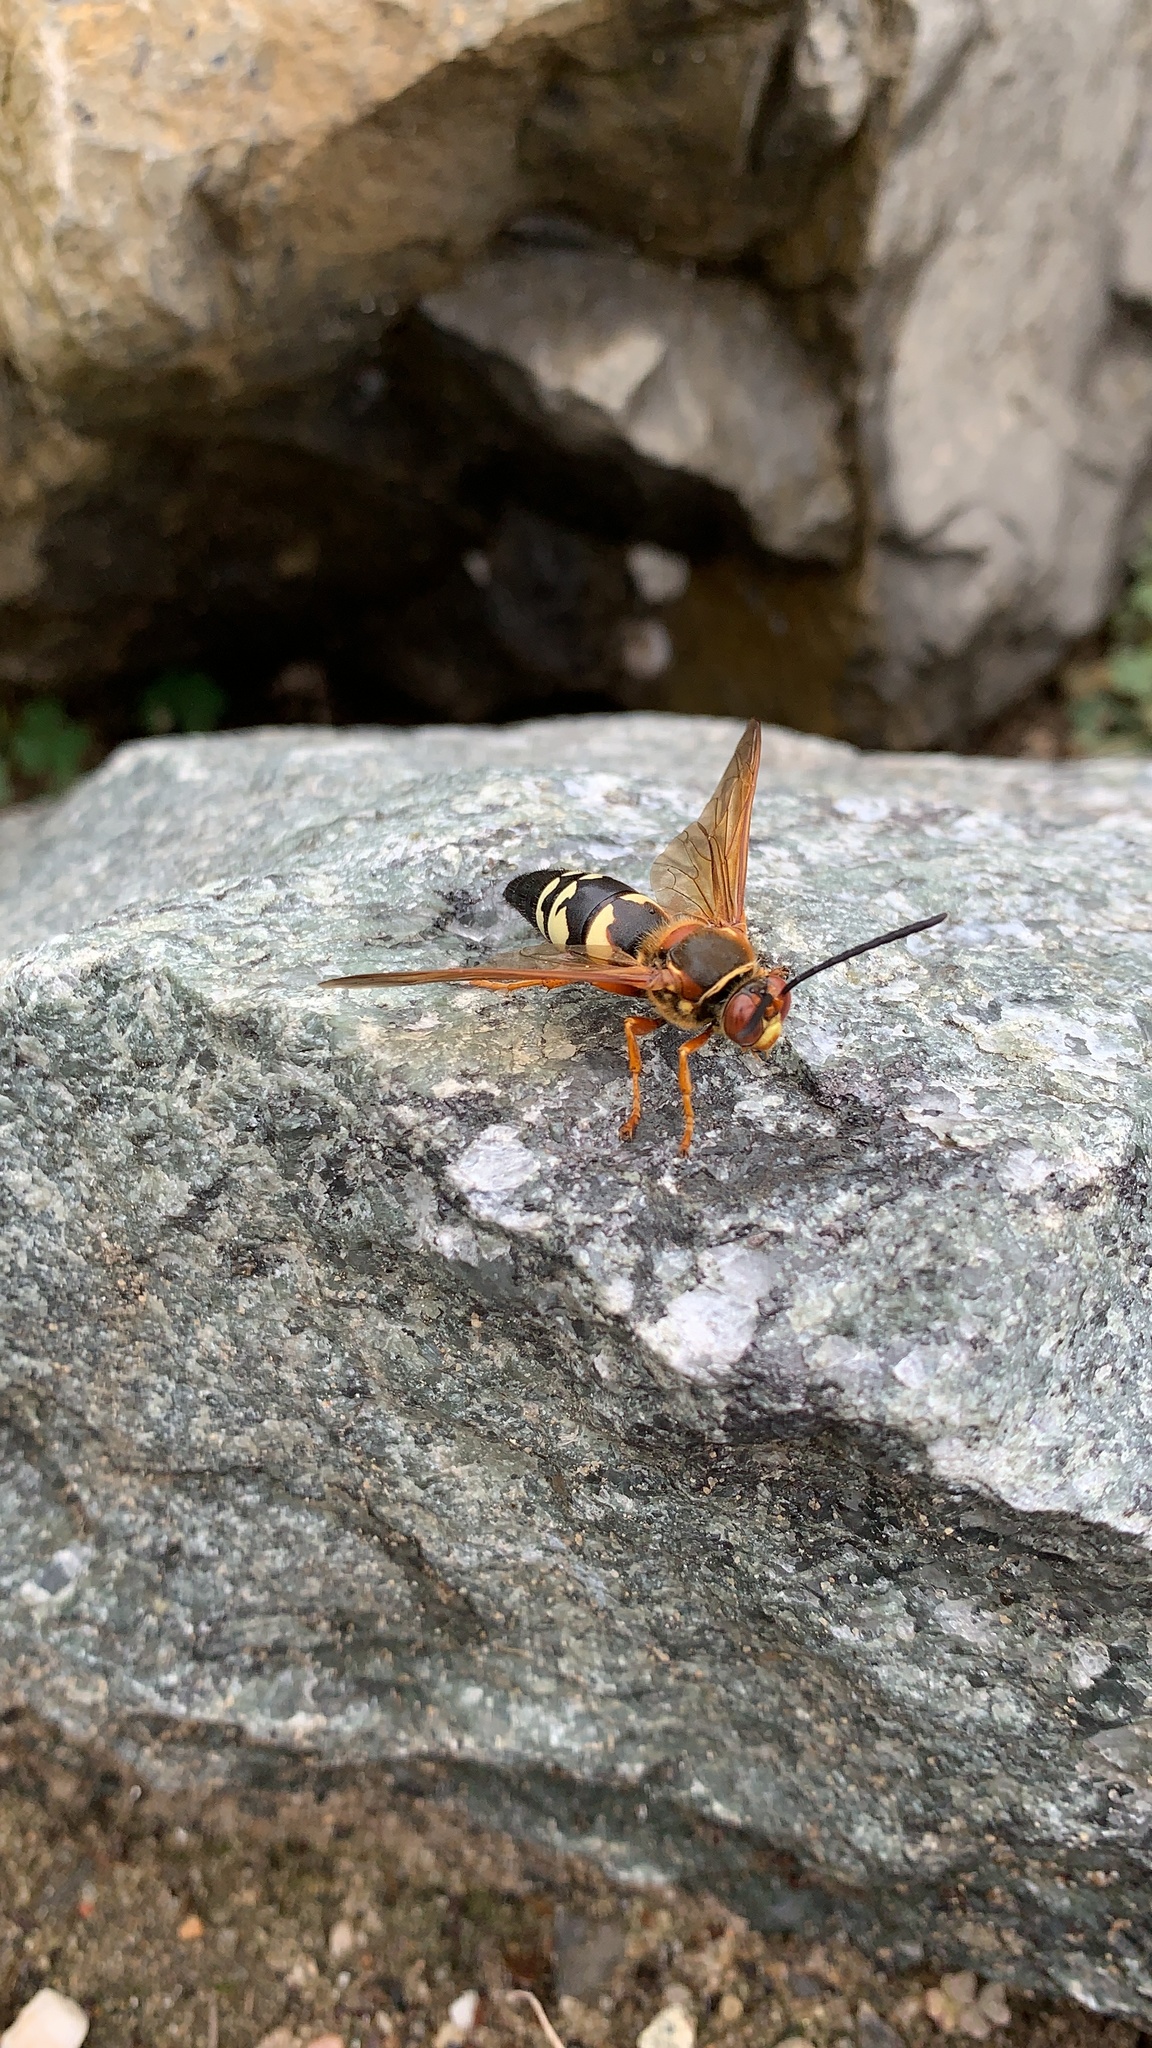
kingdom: Animalia
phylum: Arthropoda
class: Insecta
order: Hymenoptera
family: Crabronidae
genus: Sphecius
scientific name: Sphecius speciosus
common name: Cicada killer
